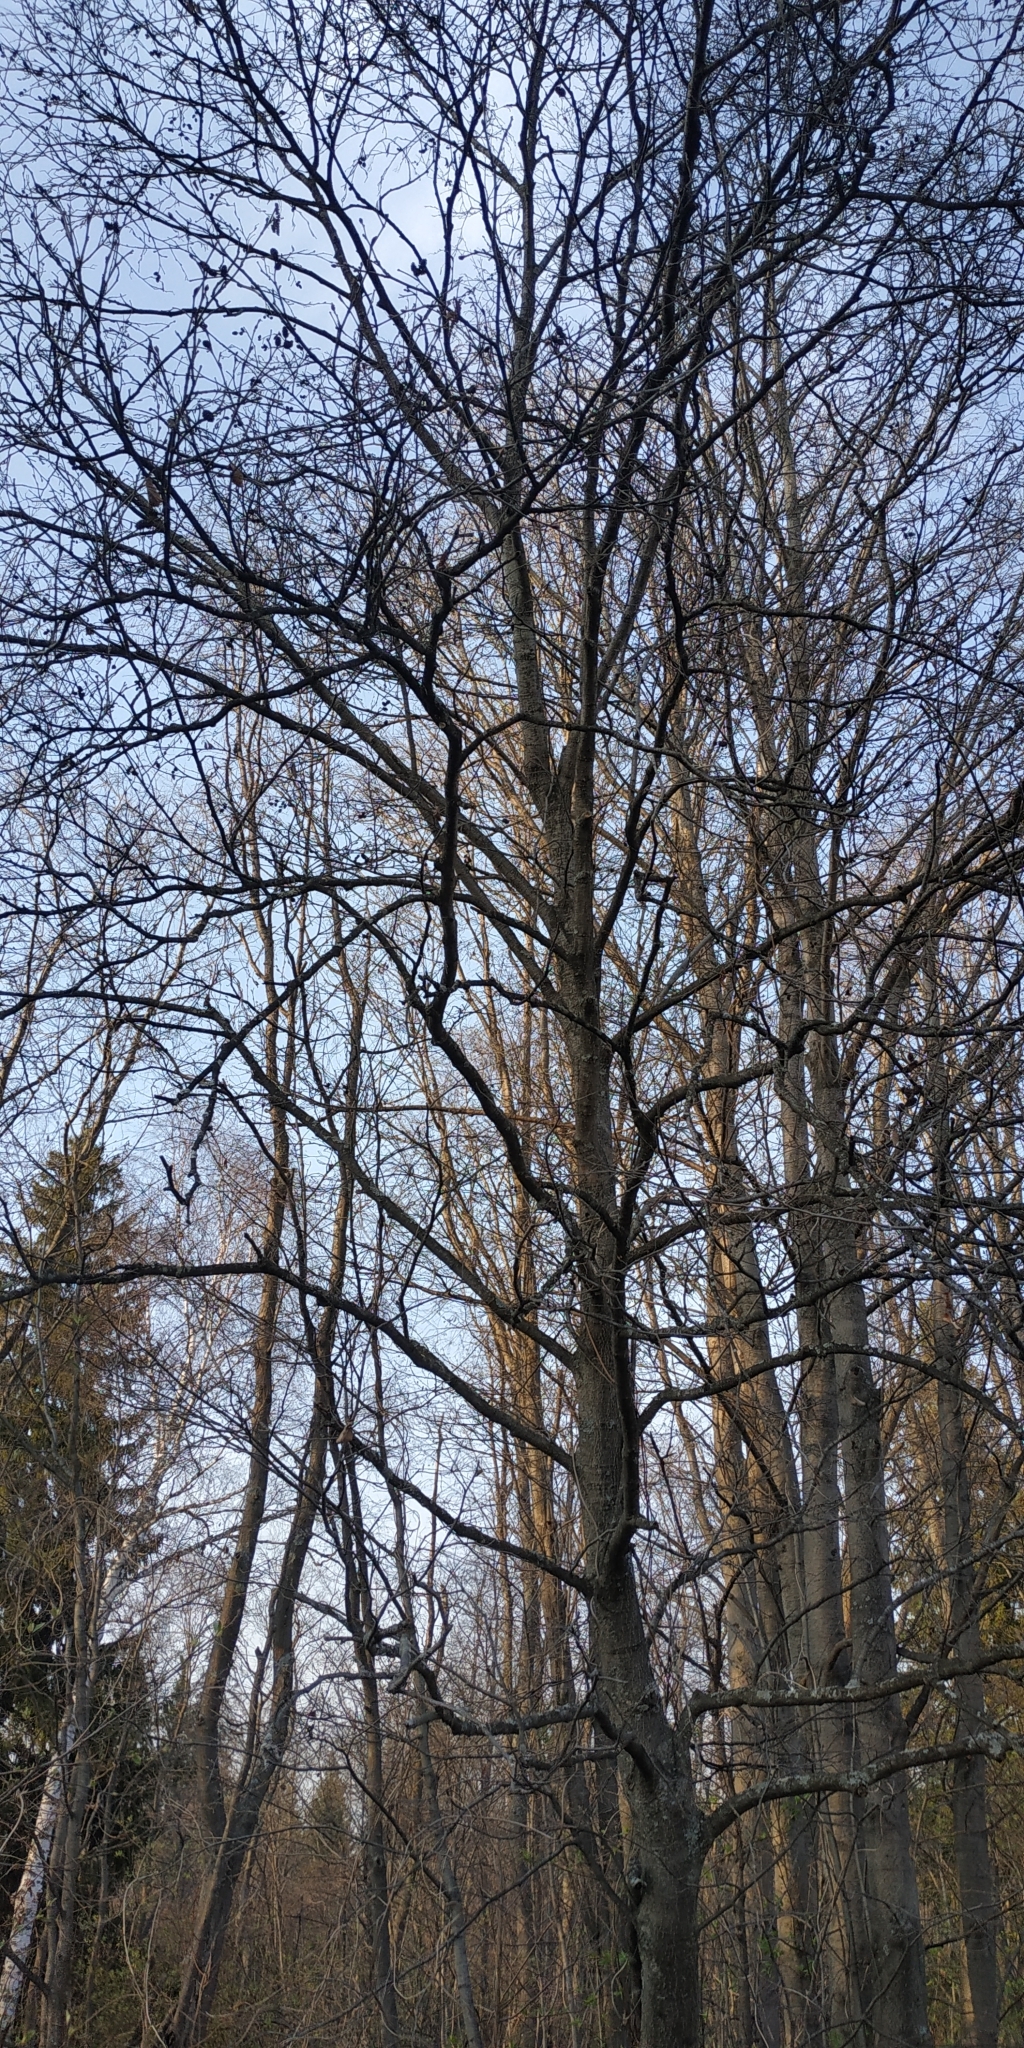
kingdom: Plantae
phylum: Tracheophyta
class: Magnoliopsida
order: Fagales
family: Betulaceae
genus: Alnus
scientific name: Alnus glutinosa
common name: Black alder
